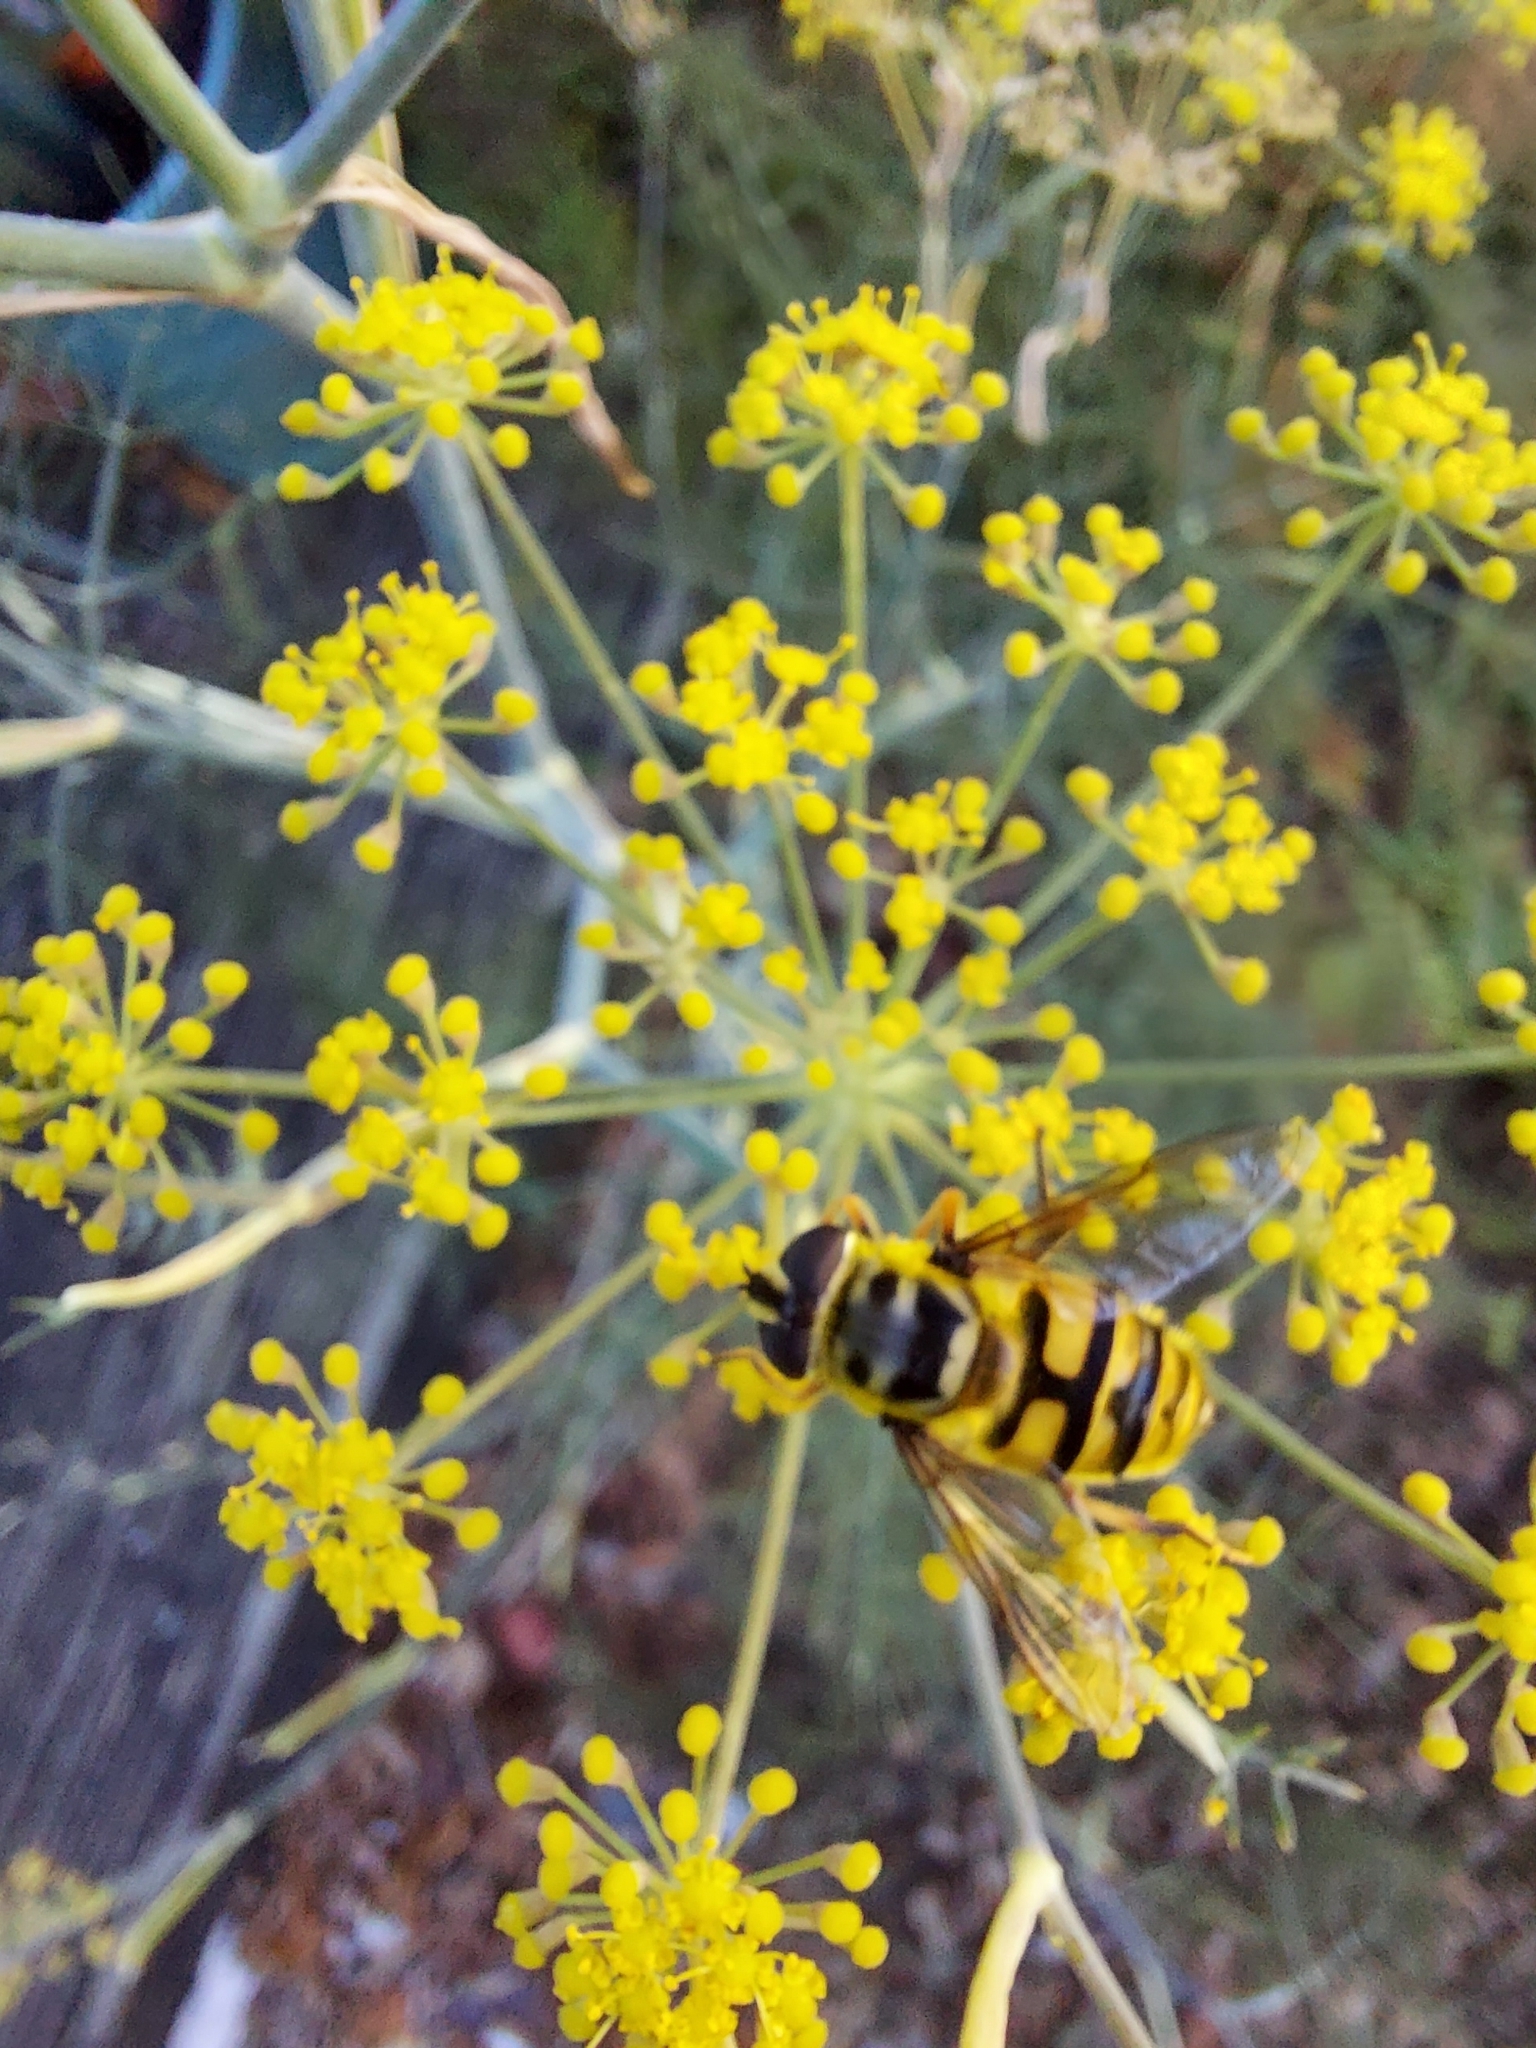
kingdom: Animalia
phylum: Arthropoda
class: Insecta
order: Diptera
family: Syrphidae
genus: Myathropa
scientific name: Myathropa florea
